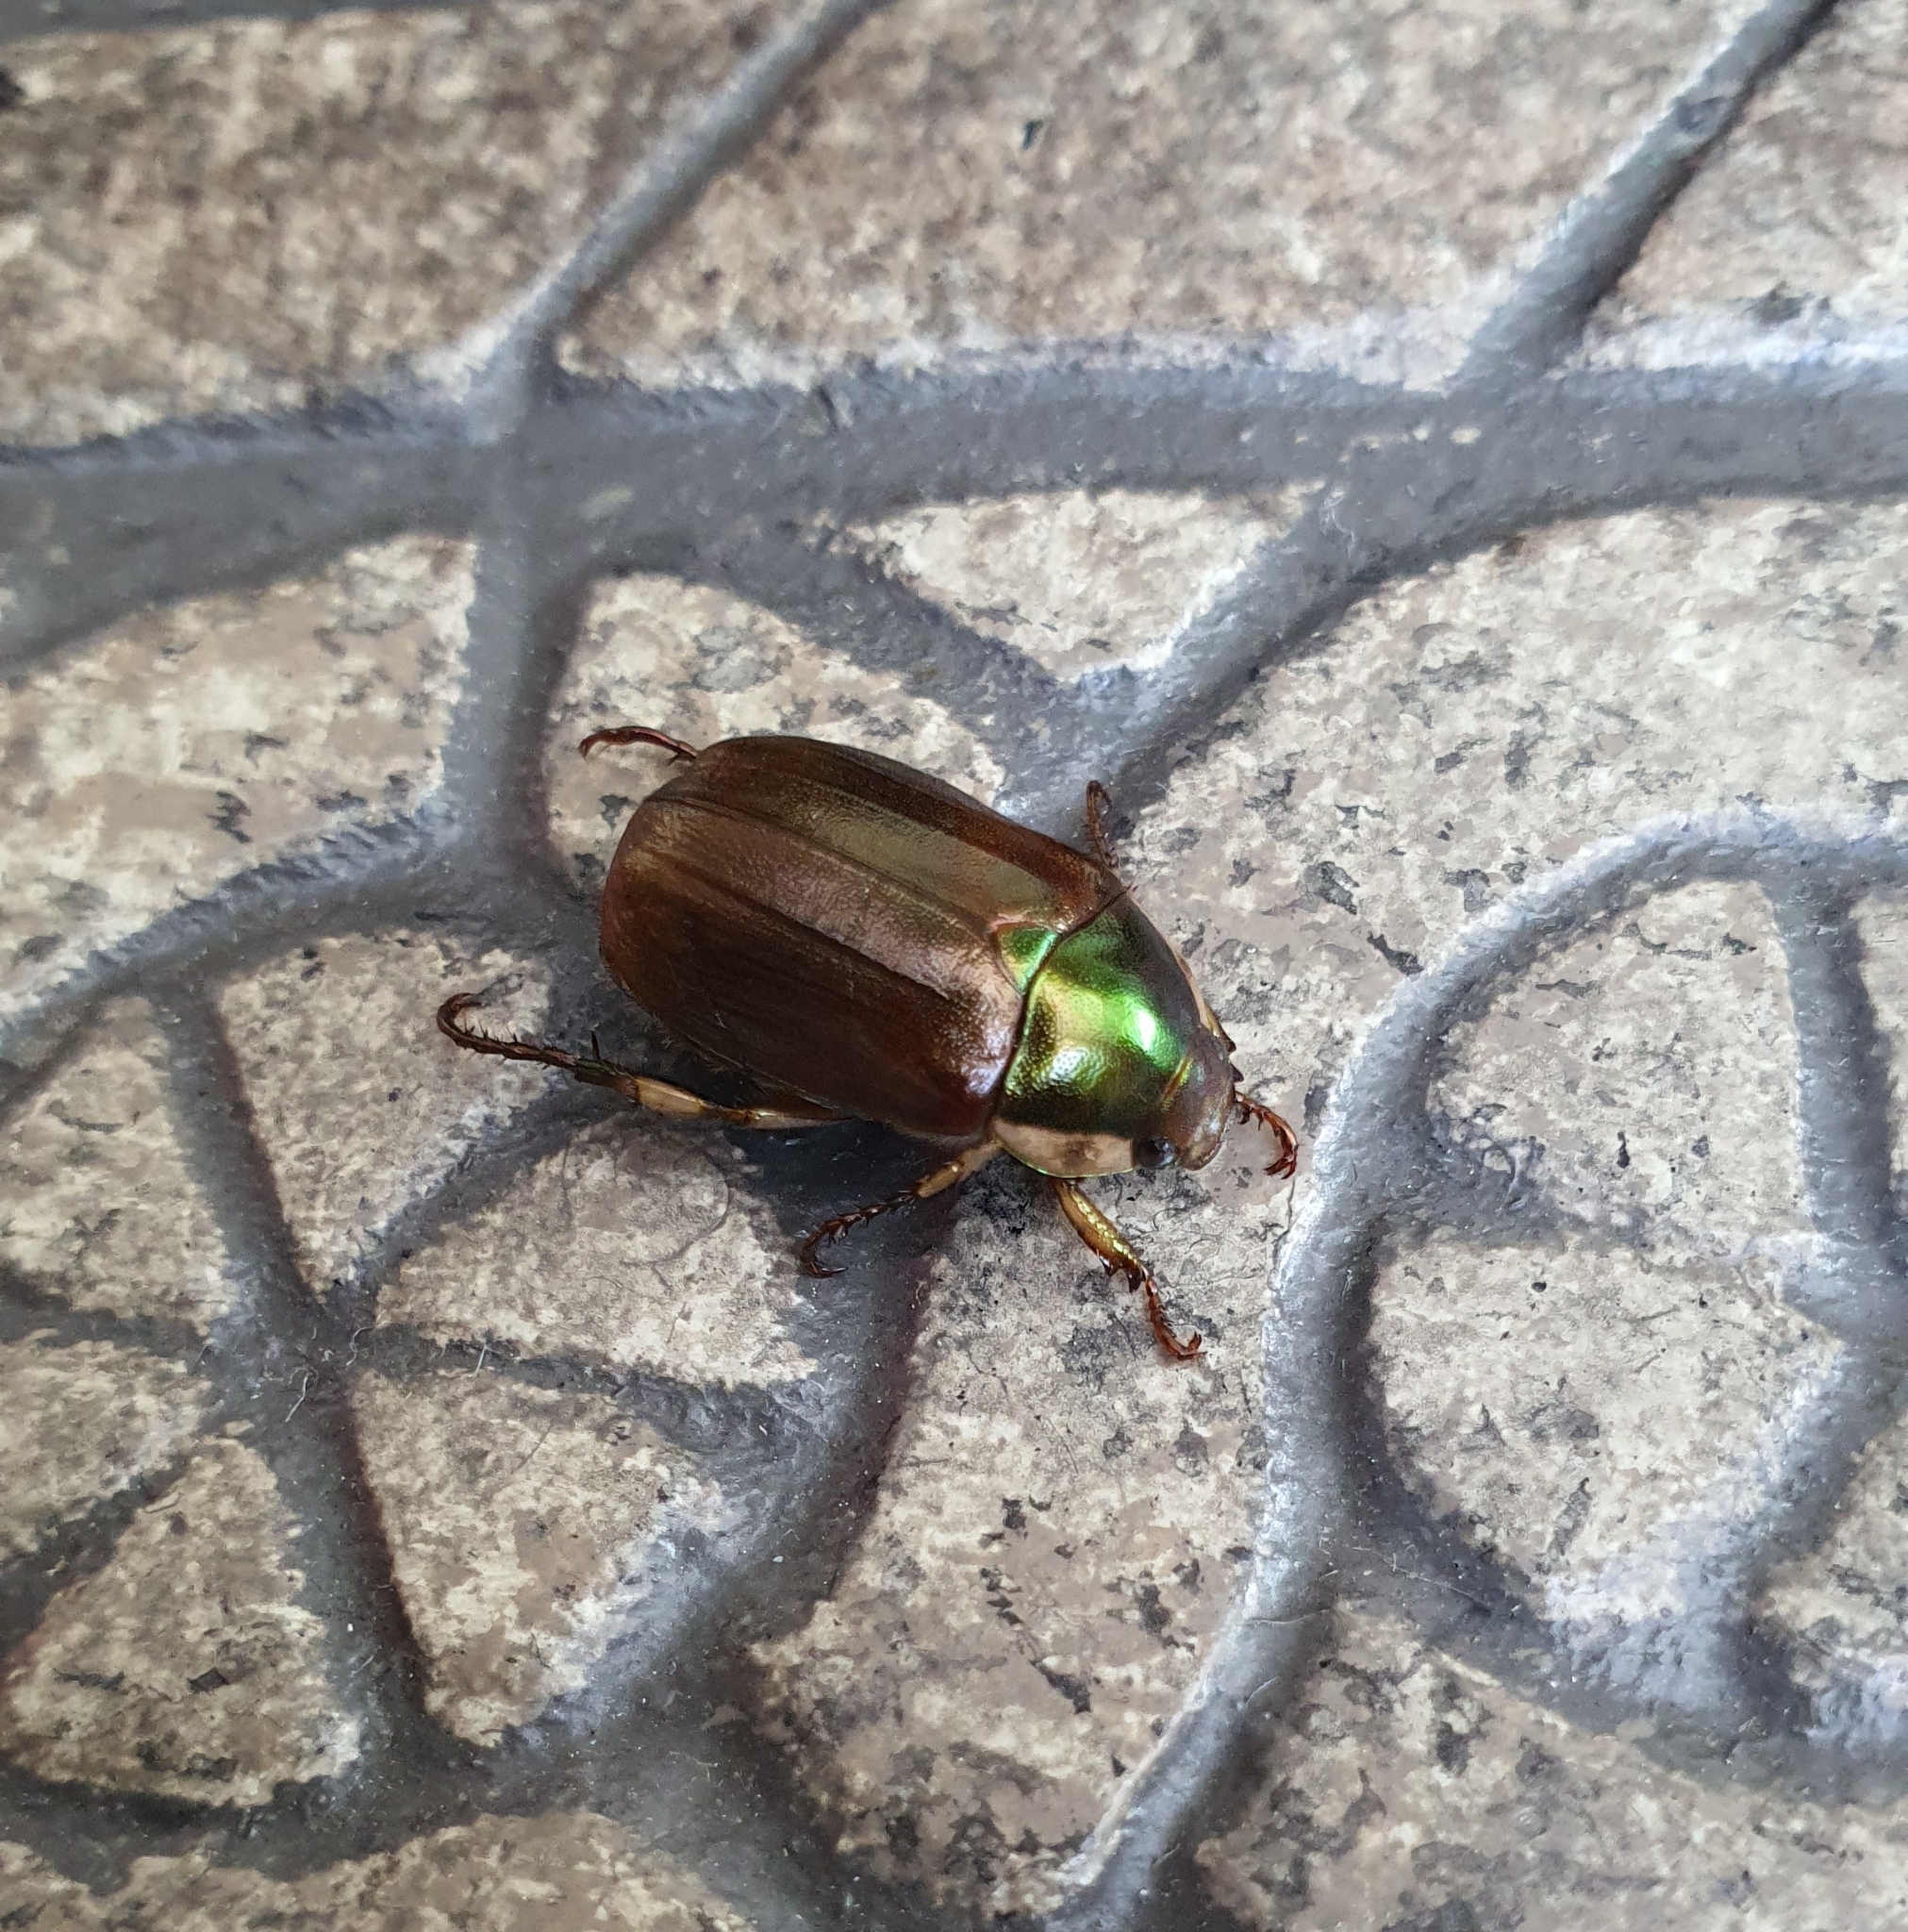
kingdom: Animalia
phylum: Arthropoda
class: Insecta
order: Coleoptera
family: Scarabaeidae
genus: Callistethus
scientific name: Callistethus marginatus
